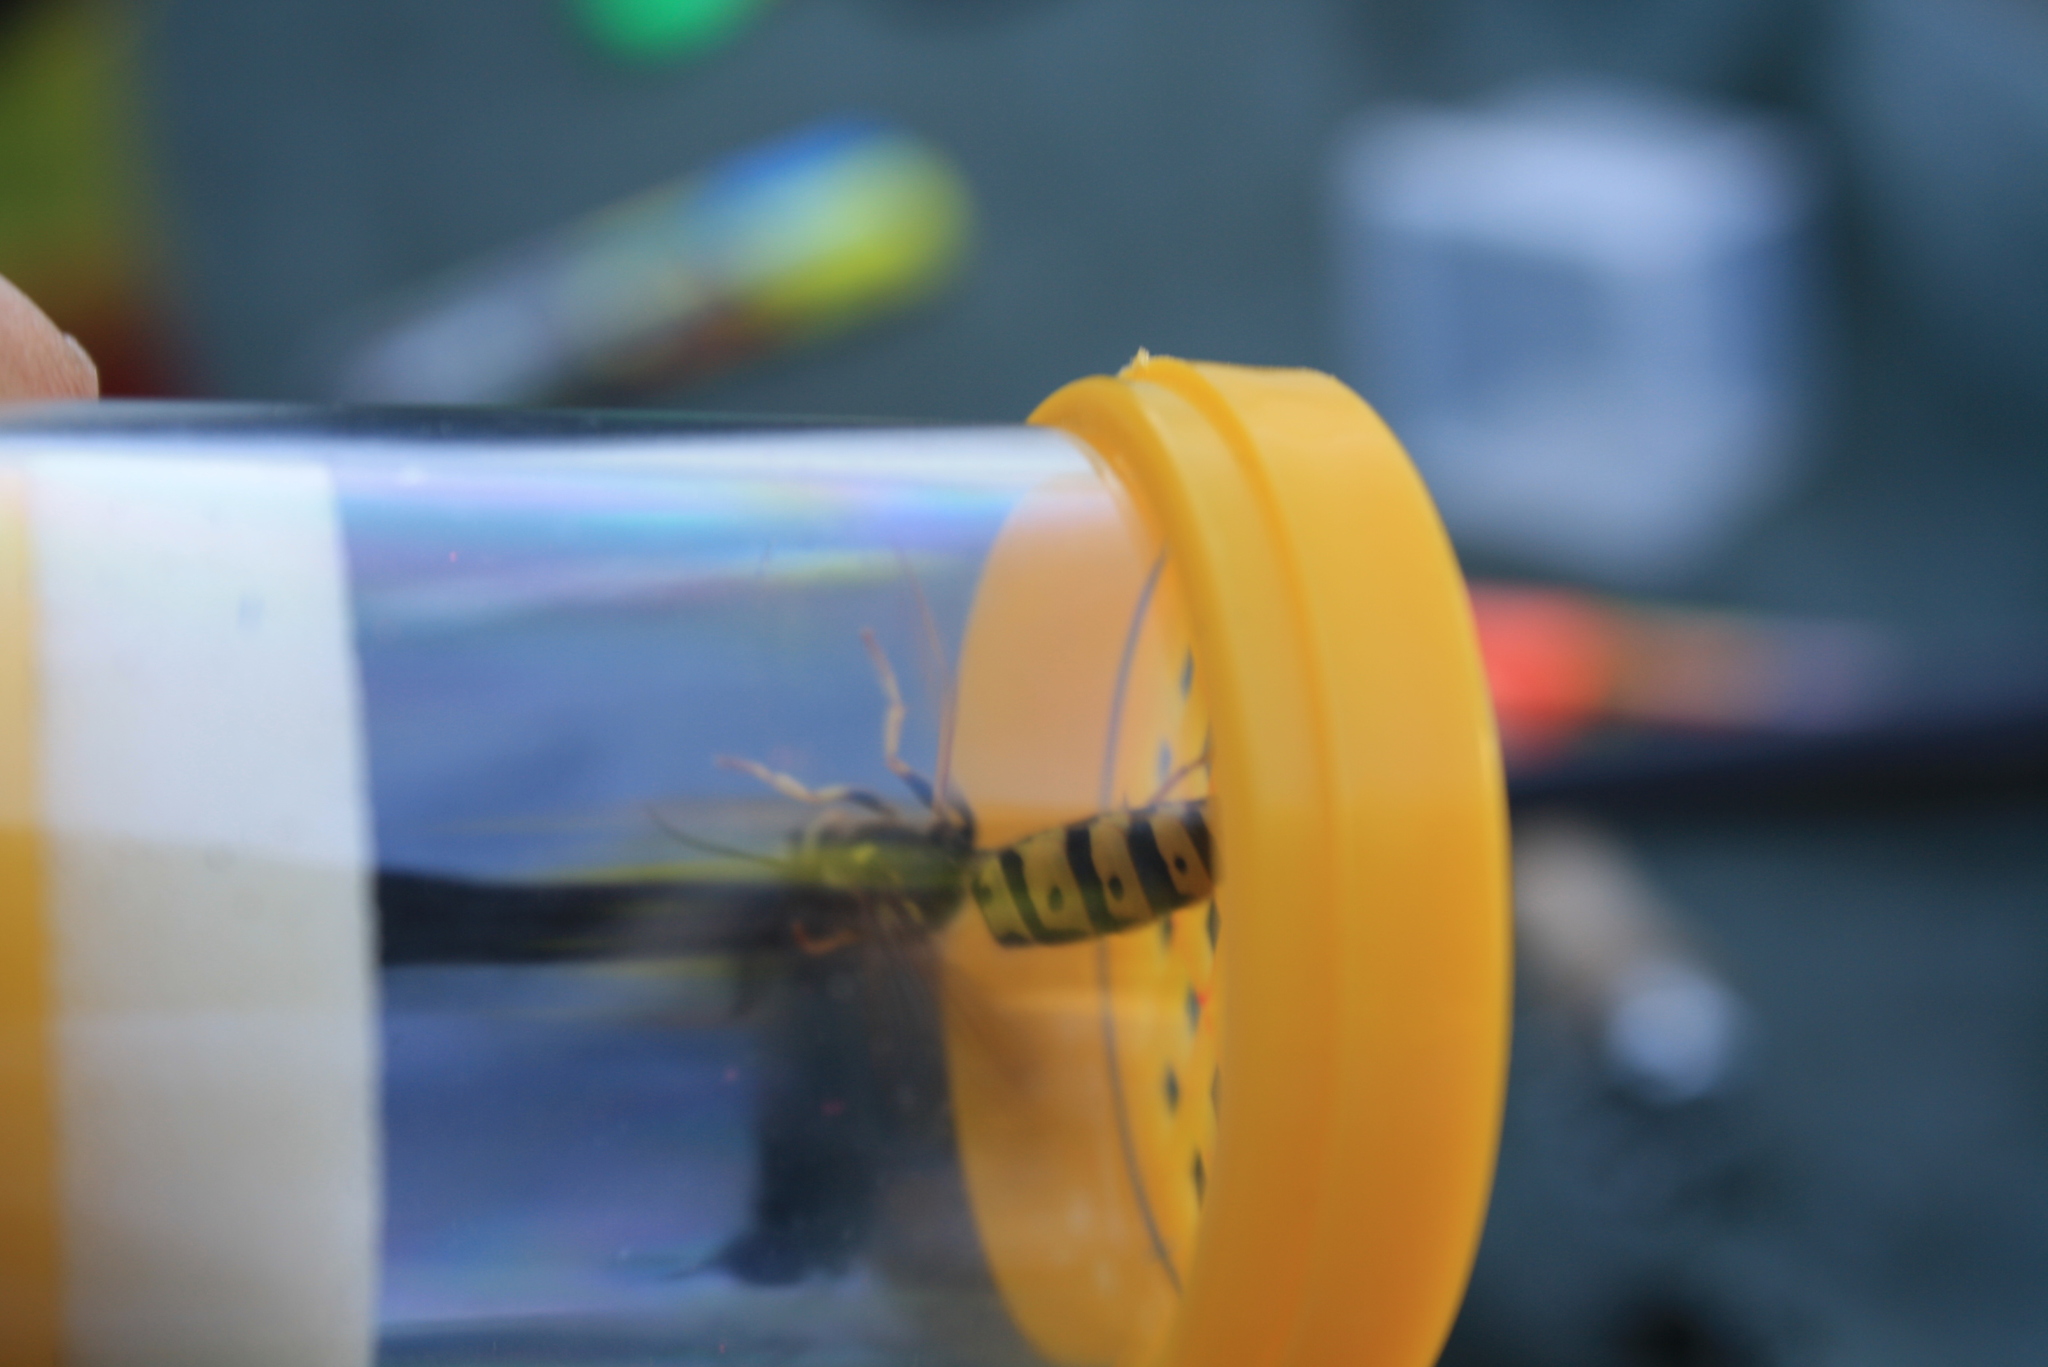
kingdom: Animalia
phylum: Arthropoda
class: Insecta
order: Hymenoptera
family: Vespidae
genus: Vespula
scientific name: Vespula germanica
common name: German wasp
